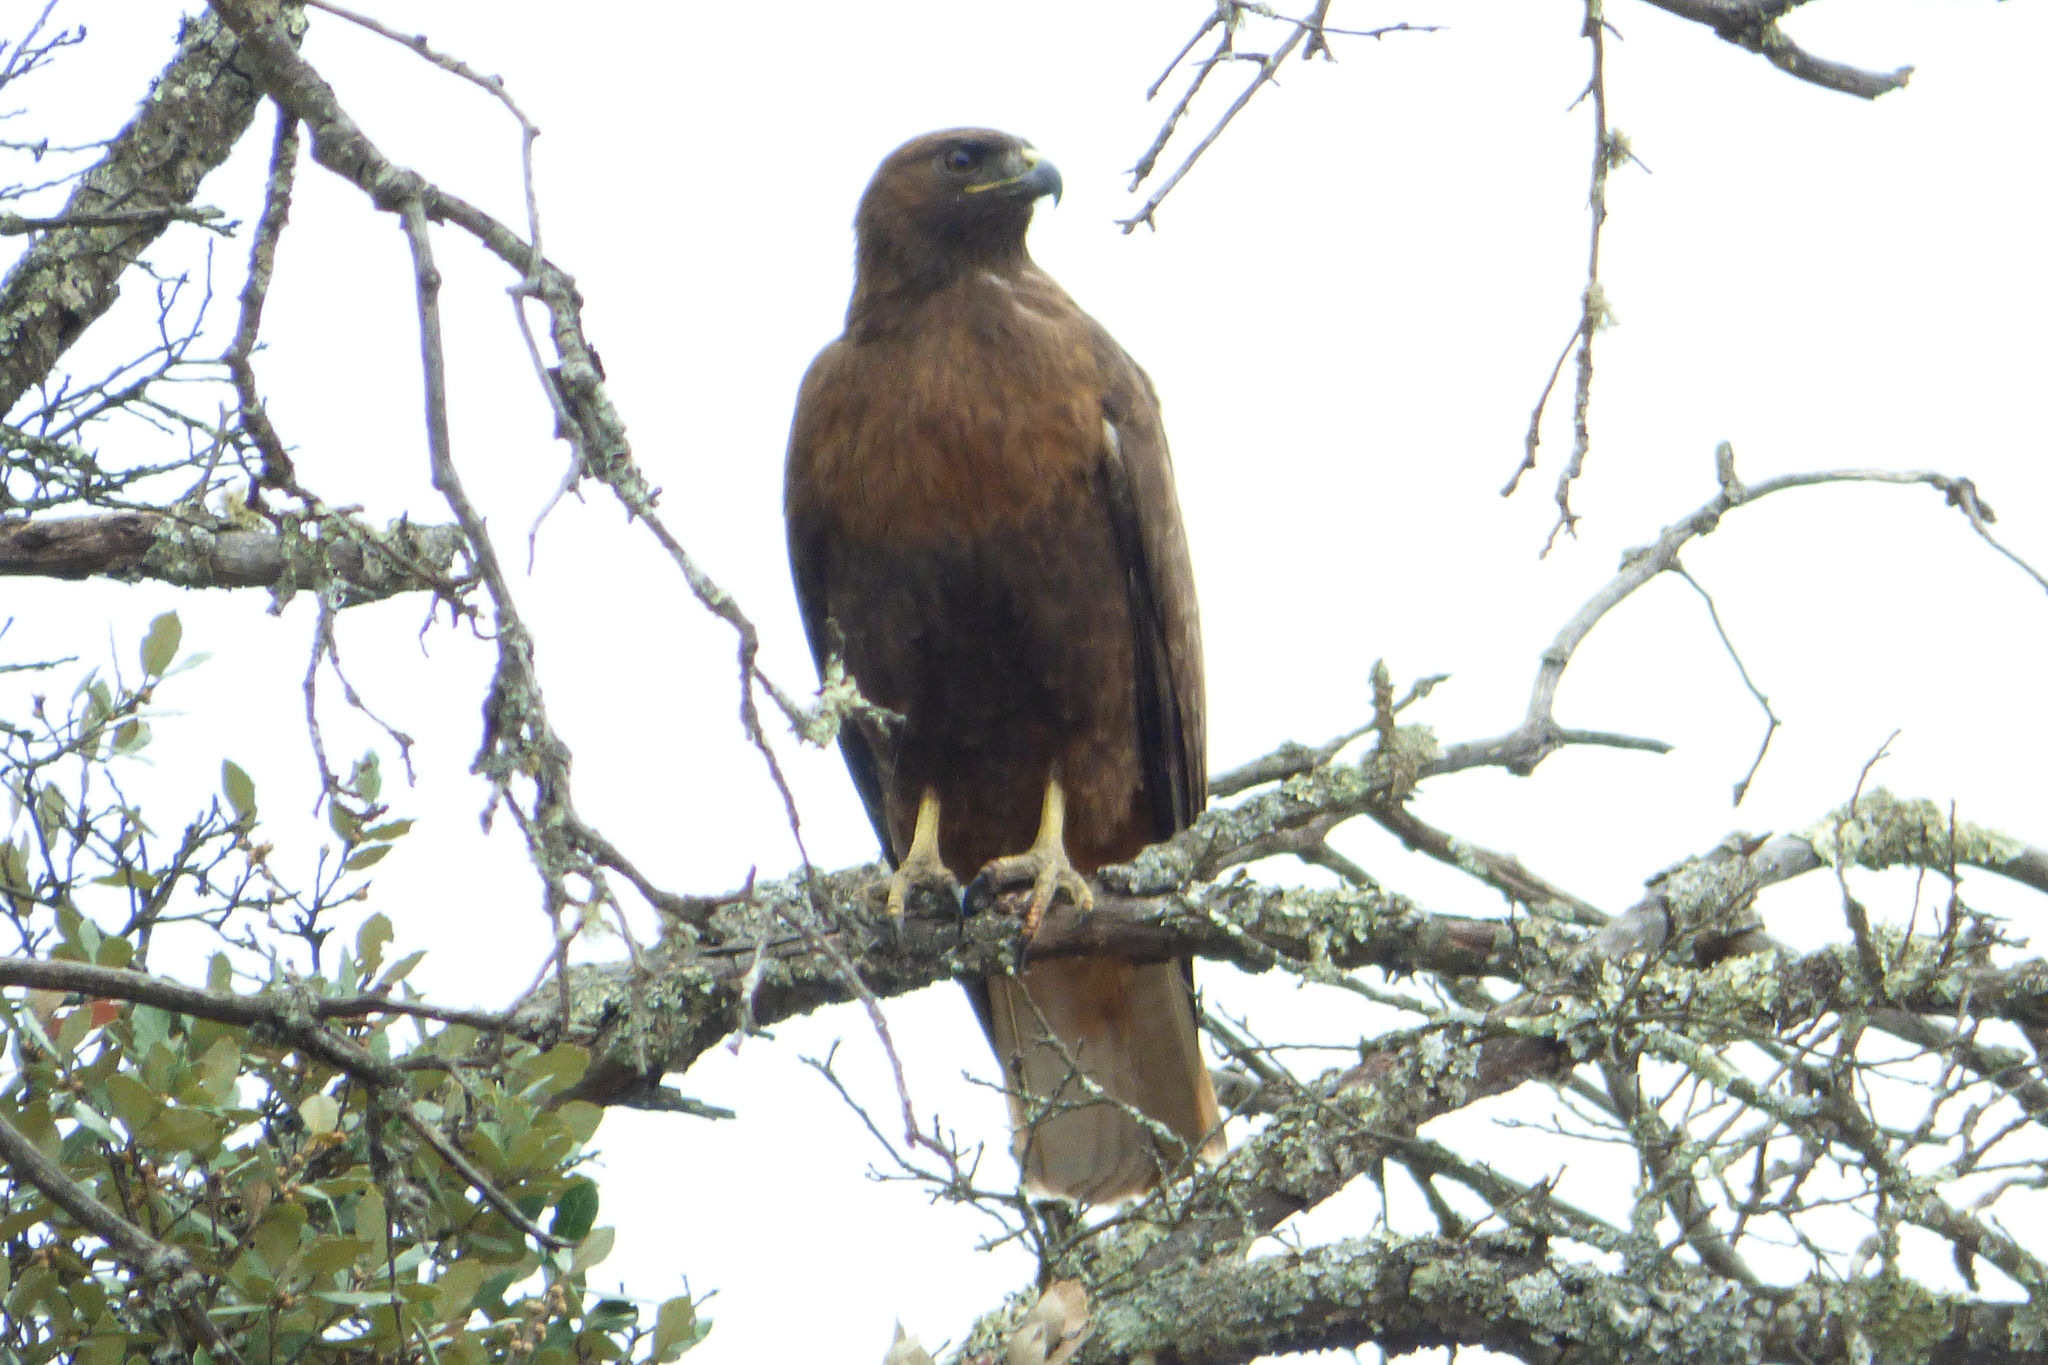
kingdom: Animalia
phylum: Chordata
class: Aves
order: Accipitriformes
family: Accipitridae
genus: Buteo
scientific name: Buteo jamaicensis
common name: Red-tailed hawk
